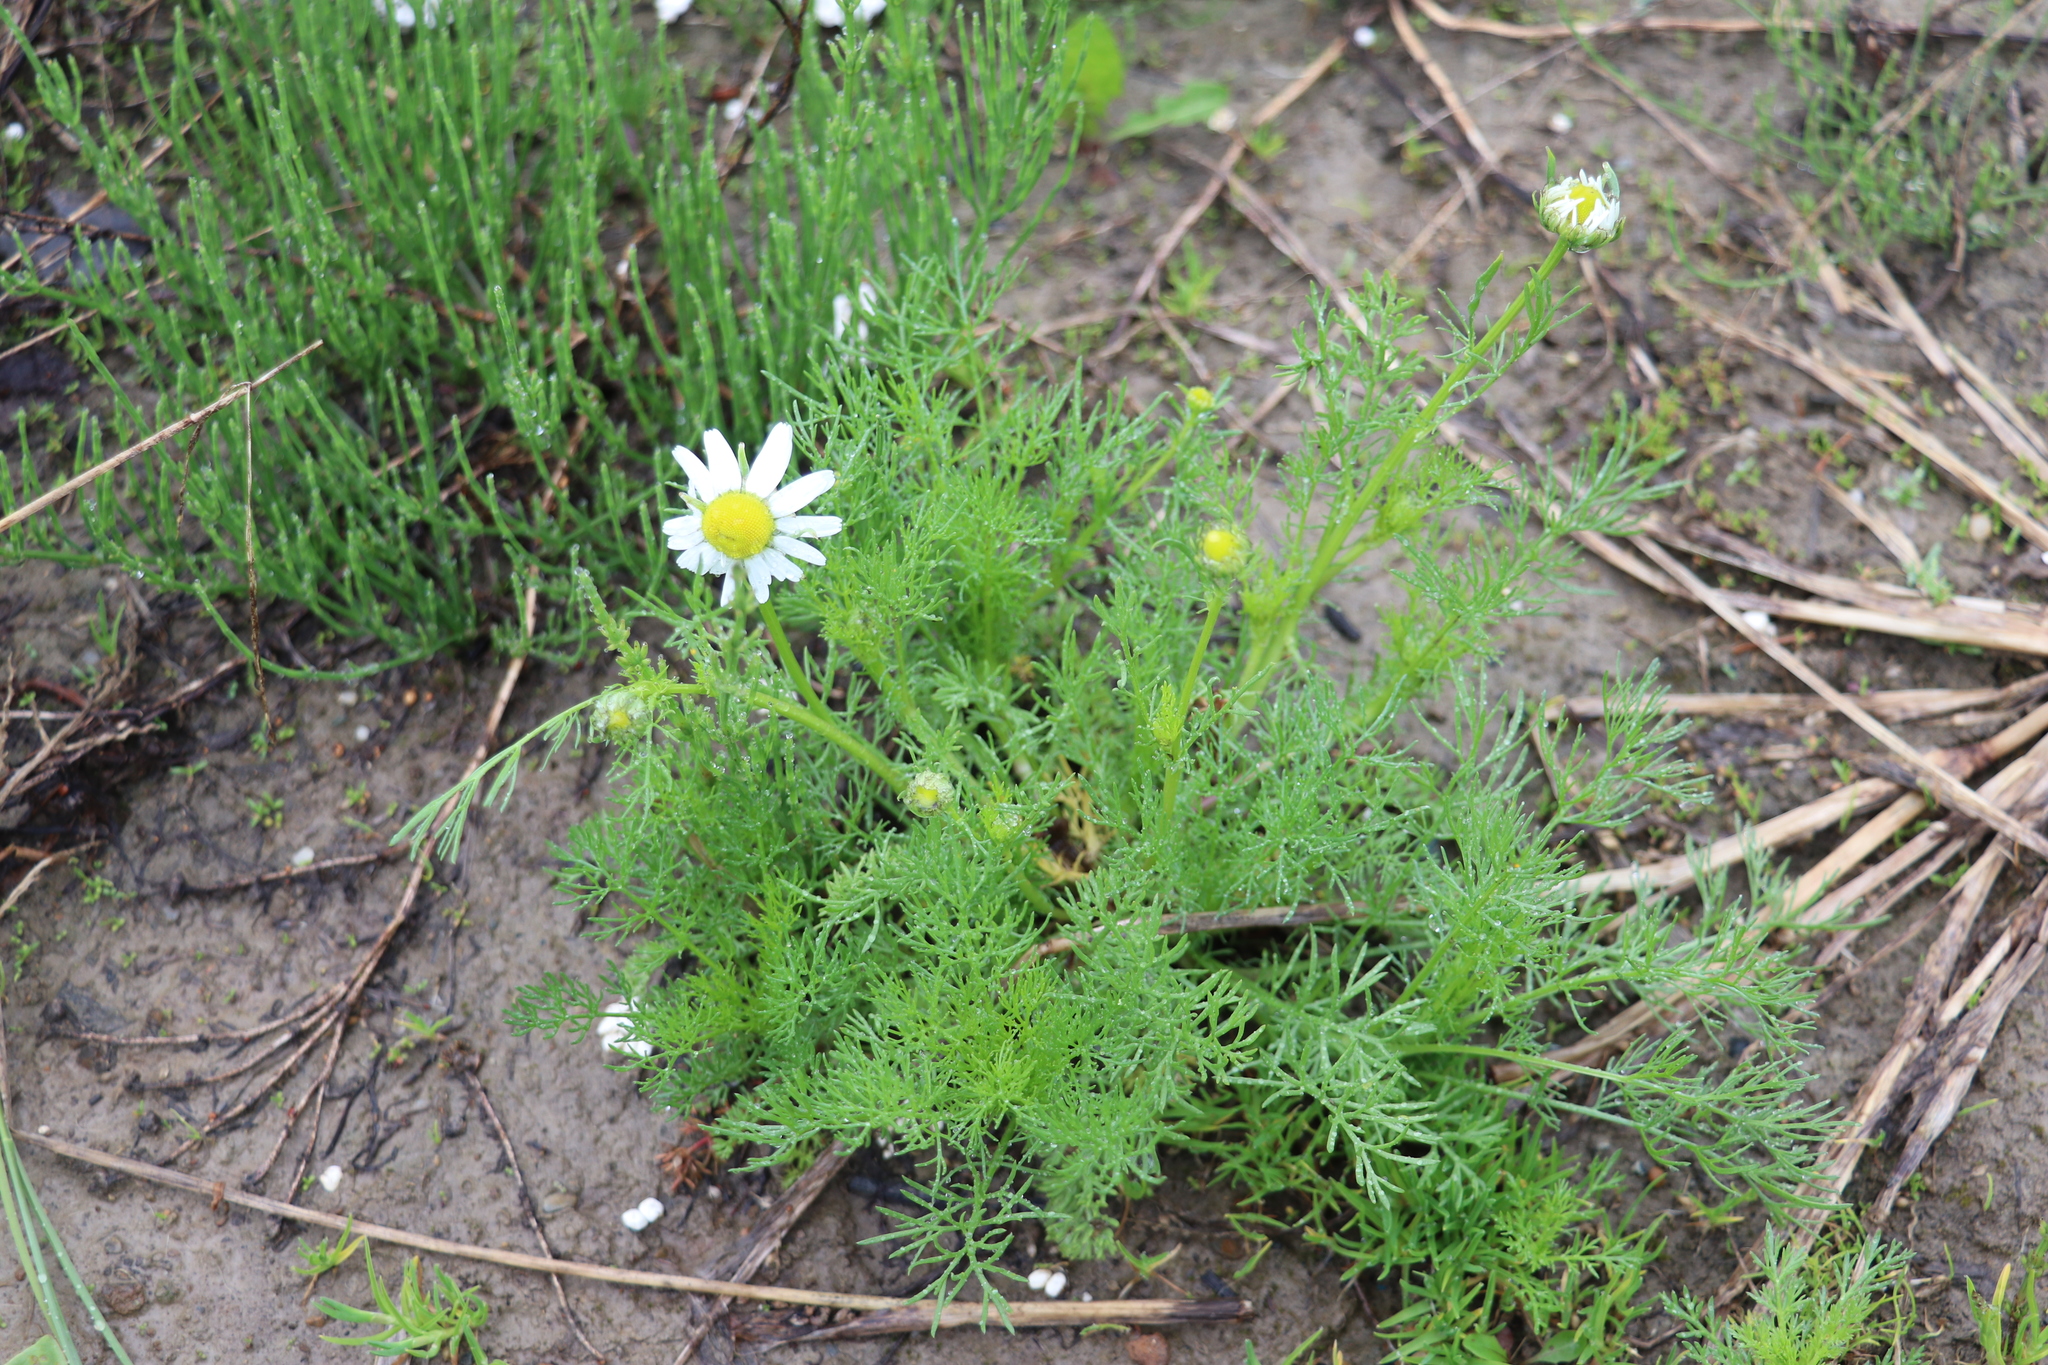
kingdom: Plantae
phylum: Tracheophyta
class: Magnoliopsida
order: Asterales
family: Asteraceae
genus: Tripleurospermum
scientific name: Tripleurospermum inodorum
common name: Scentless mayweed
